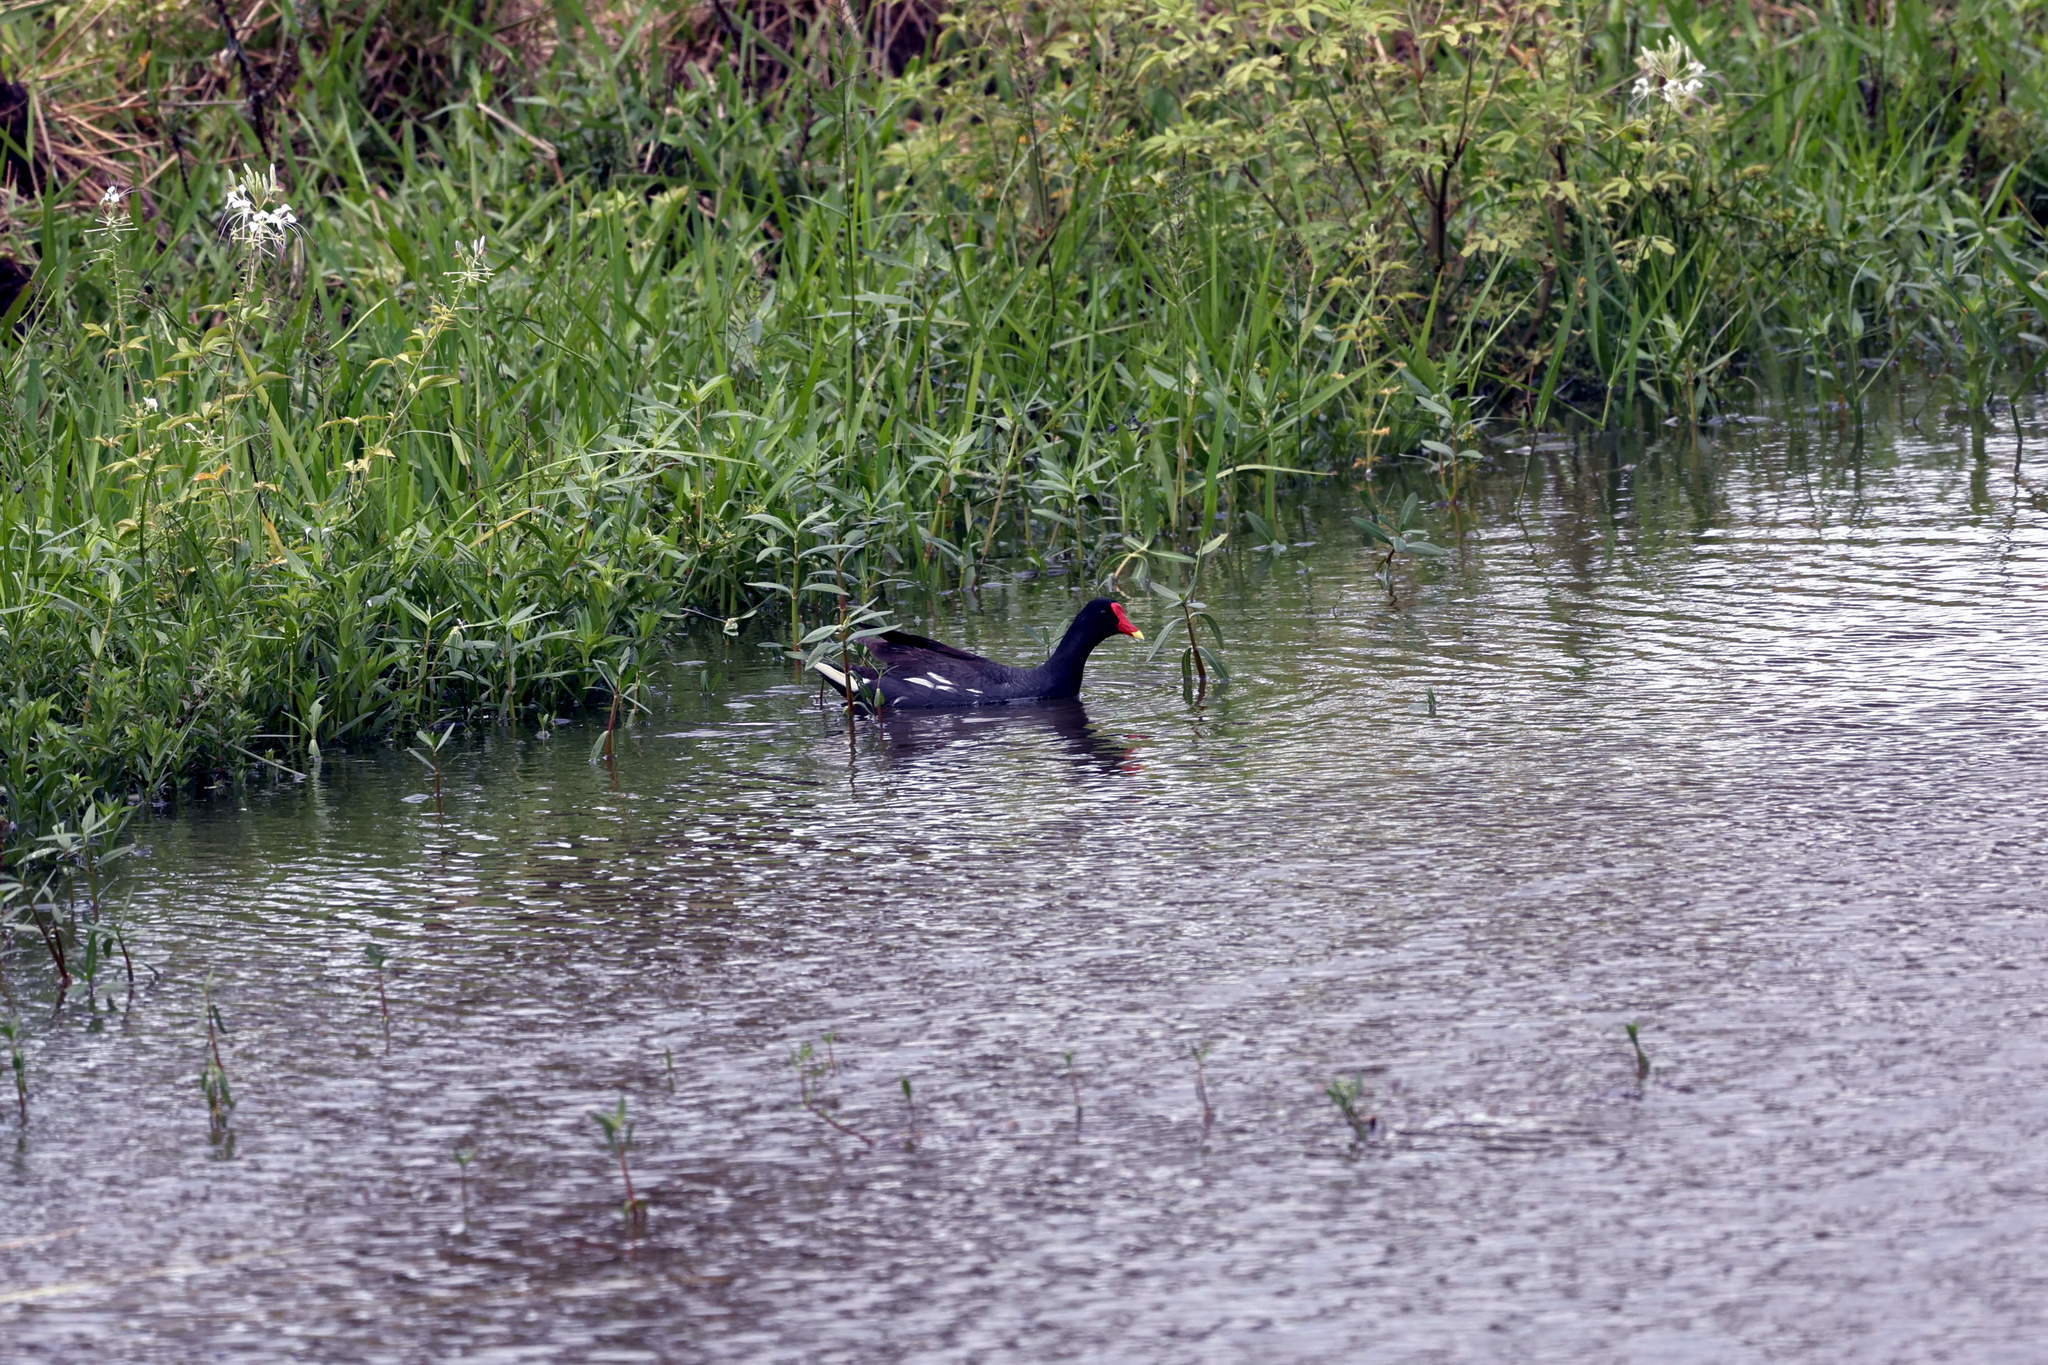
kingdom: Animalia
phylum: Chordata
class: Aves
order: Gruiformes
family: Rallidae
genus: Gallinula
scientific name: Gallinula chloropus
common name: Common moorhen
